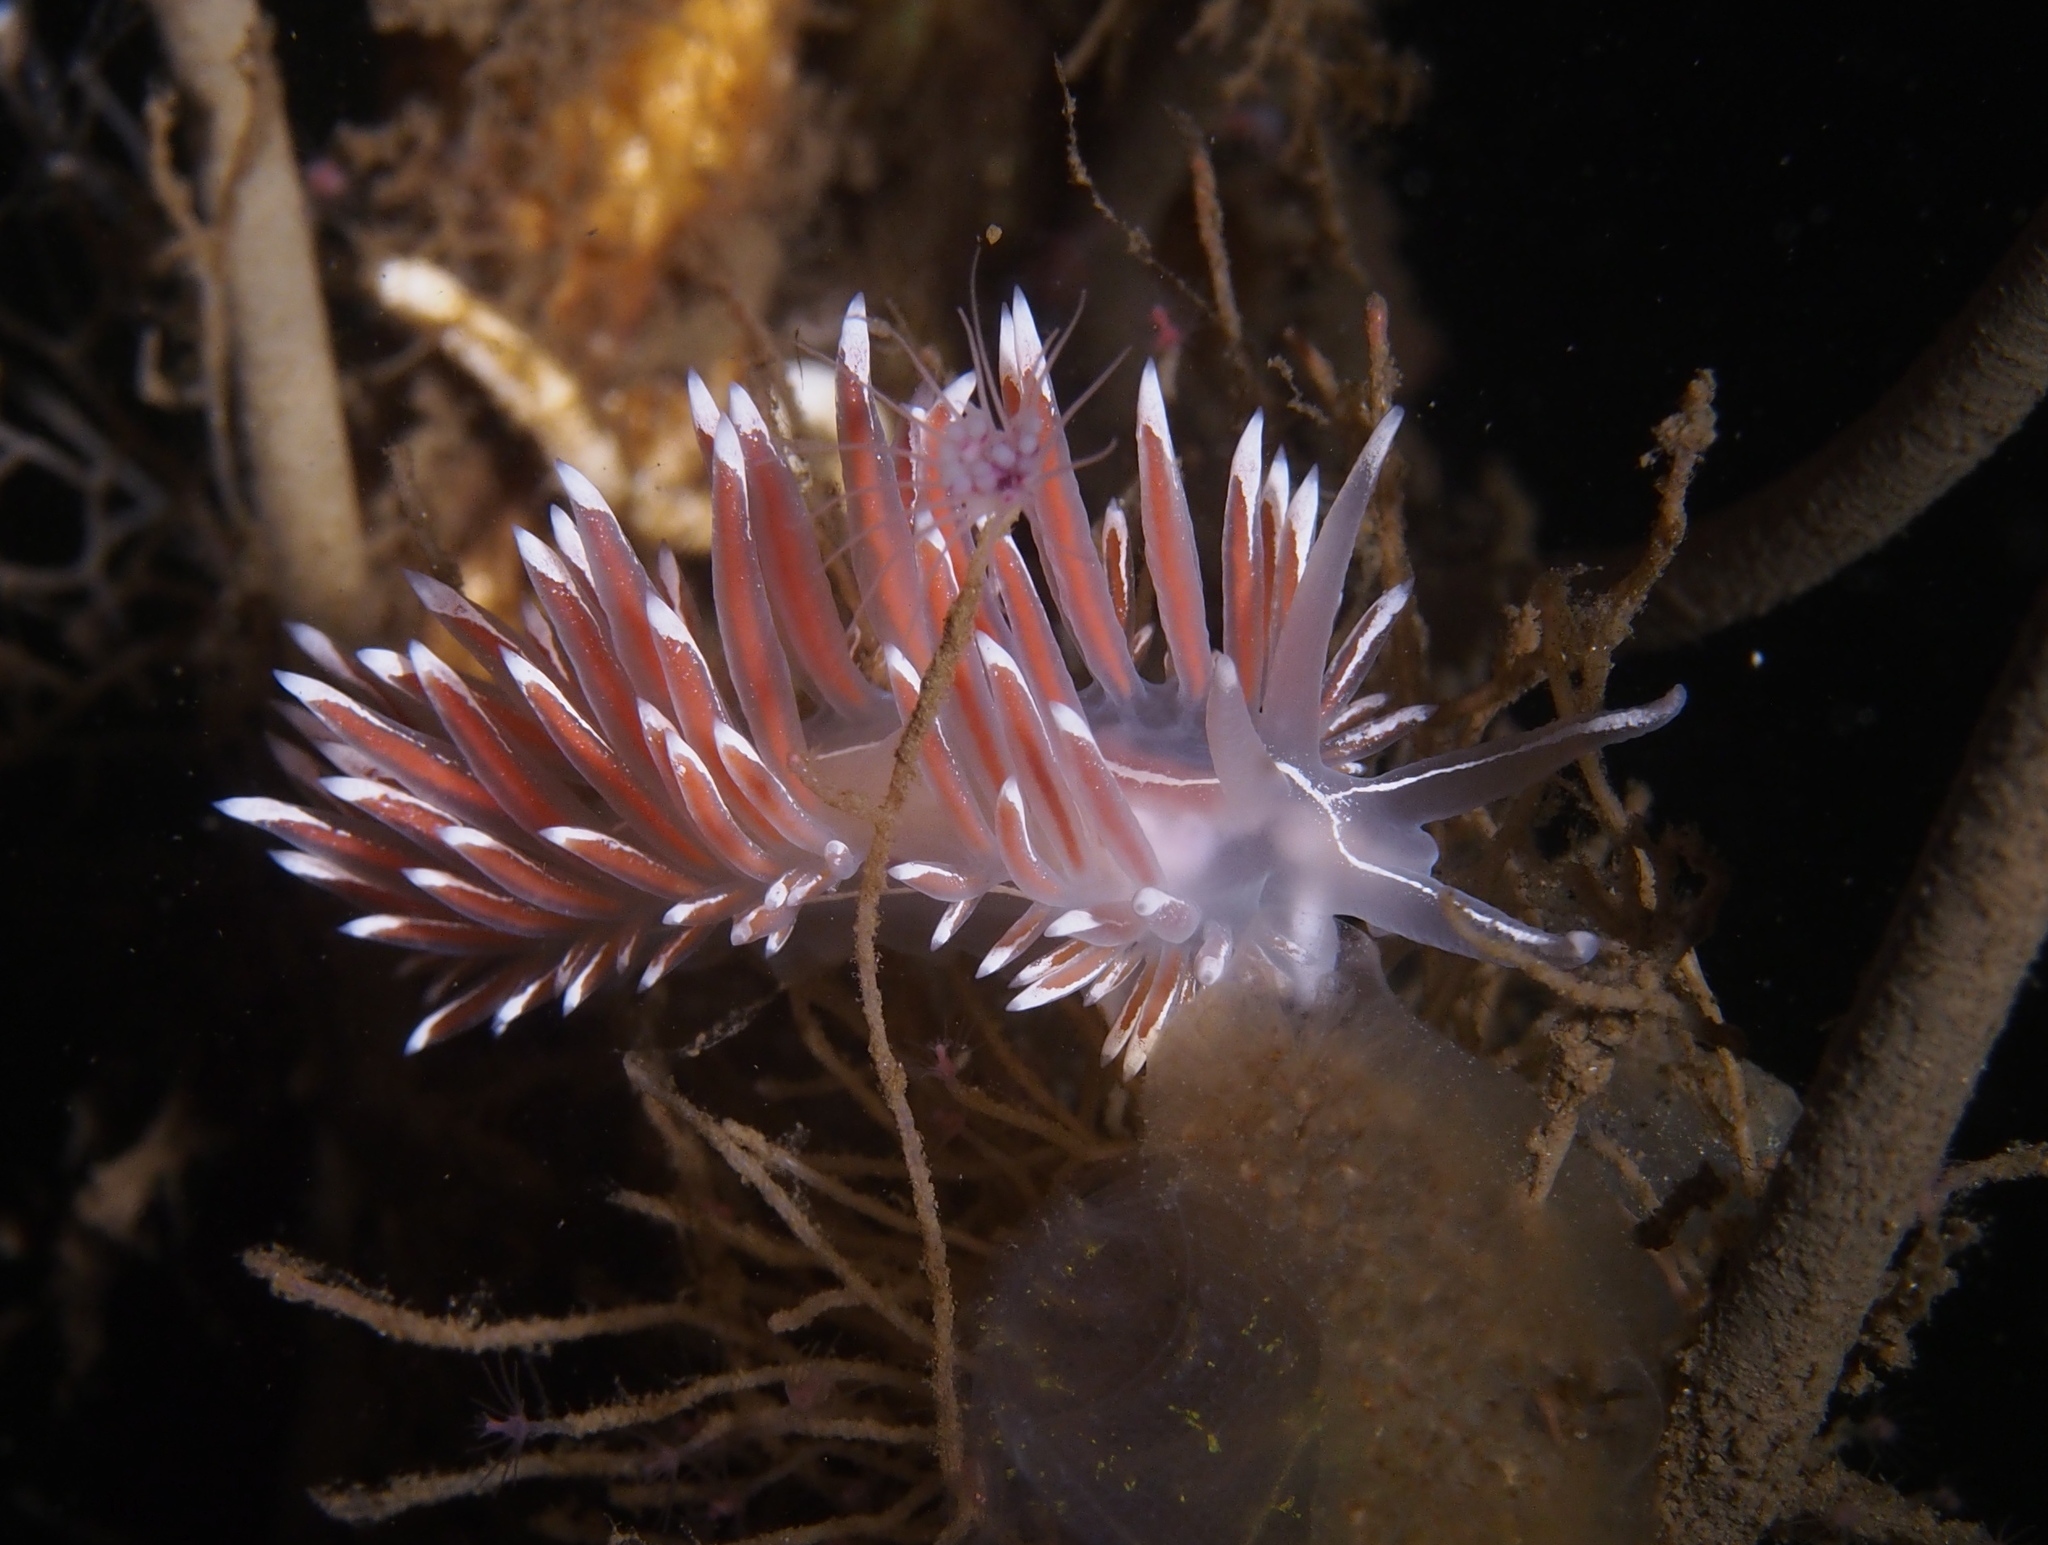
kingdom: Animalia
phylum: Mollusca
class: Gastropoda
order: Nudibranchia
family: Coryphellidae
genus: Coryphella
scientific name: Coryphella lineata
